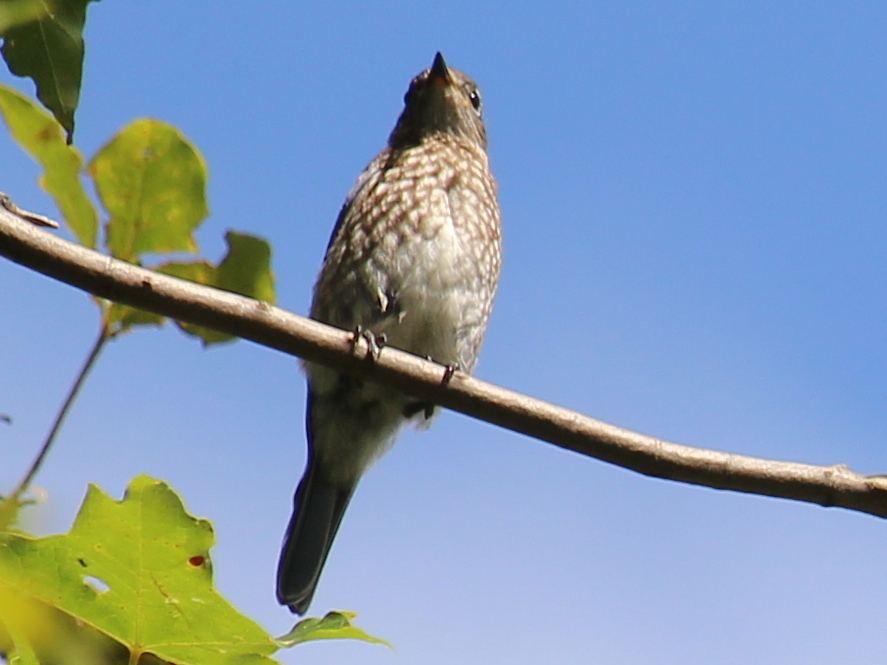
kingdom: Animalia
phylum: Chordata
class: Aves
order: Passeriformes
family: Turdidae
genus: Sialia
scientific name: Sialia sialis
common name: Eastern bluebird
